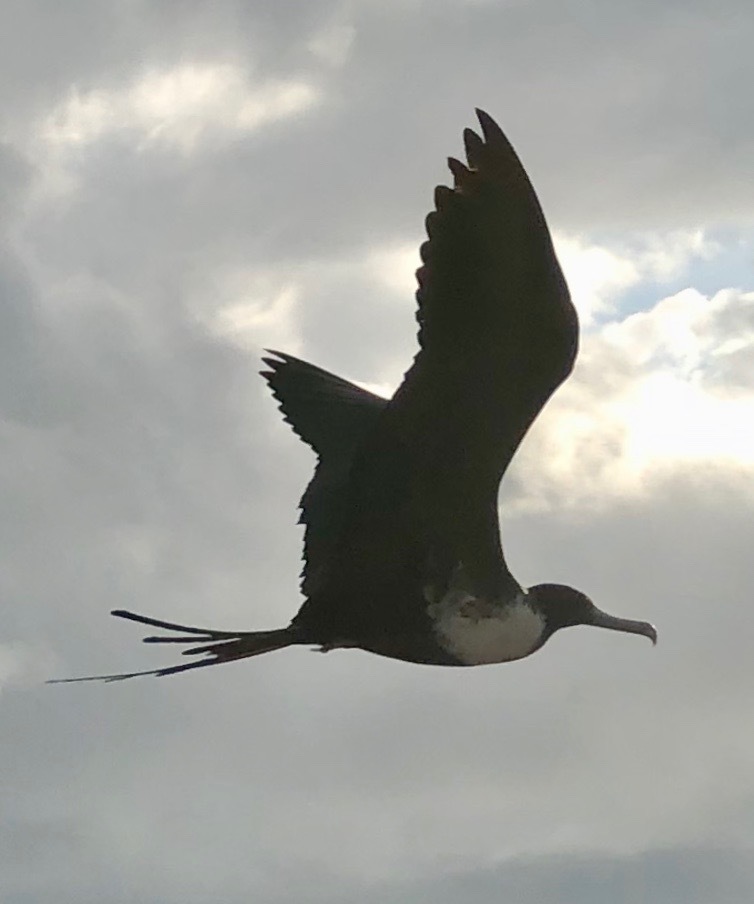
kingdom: Animalia
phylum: Chordata
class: Aves
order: Suliformes
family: Fregatidae
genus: Fregata
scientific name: Fregata magnificens
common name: Magnificent frigatebird
